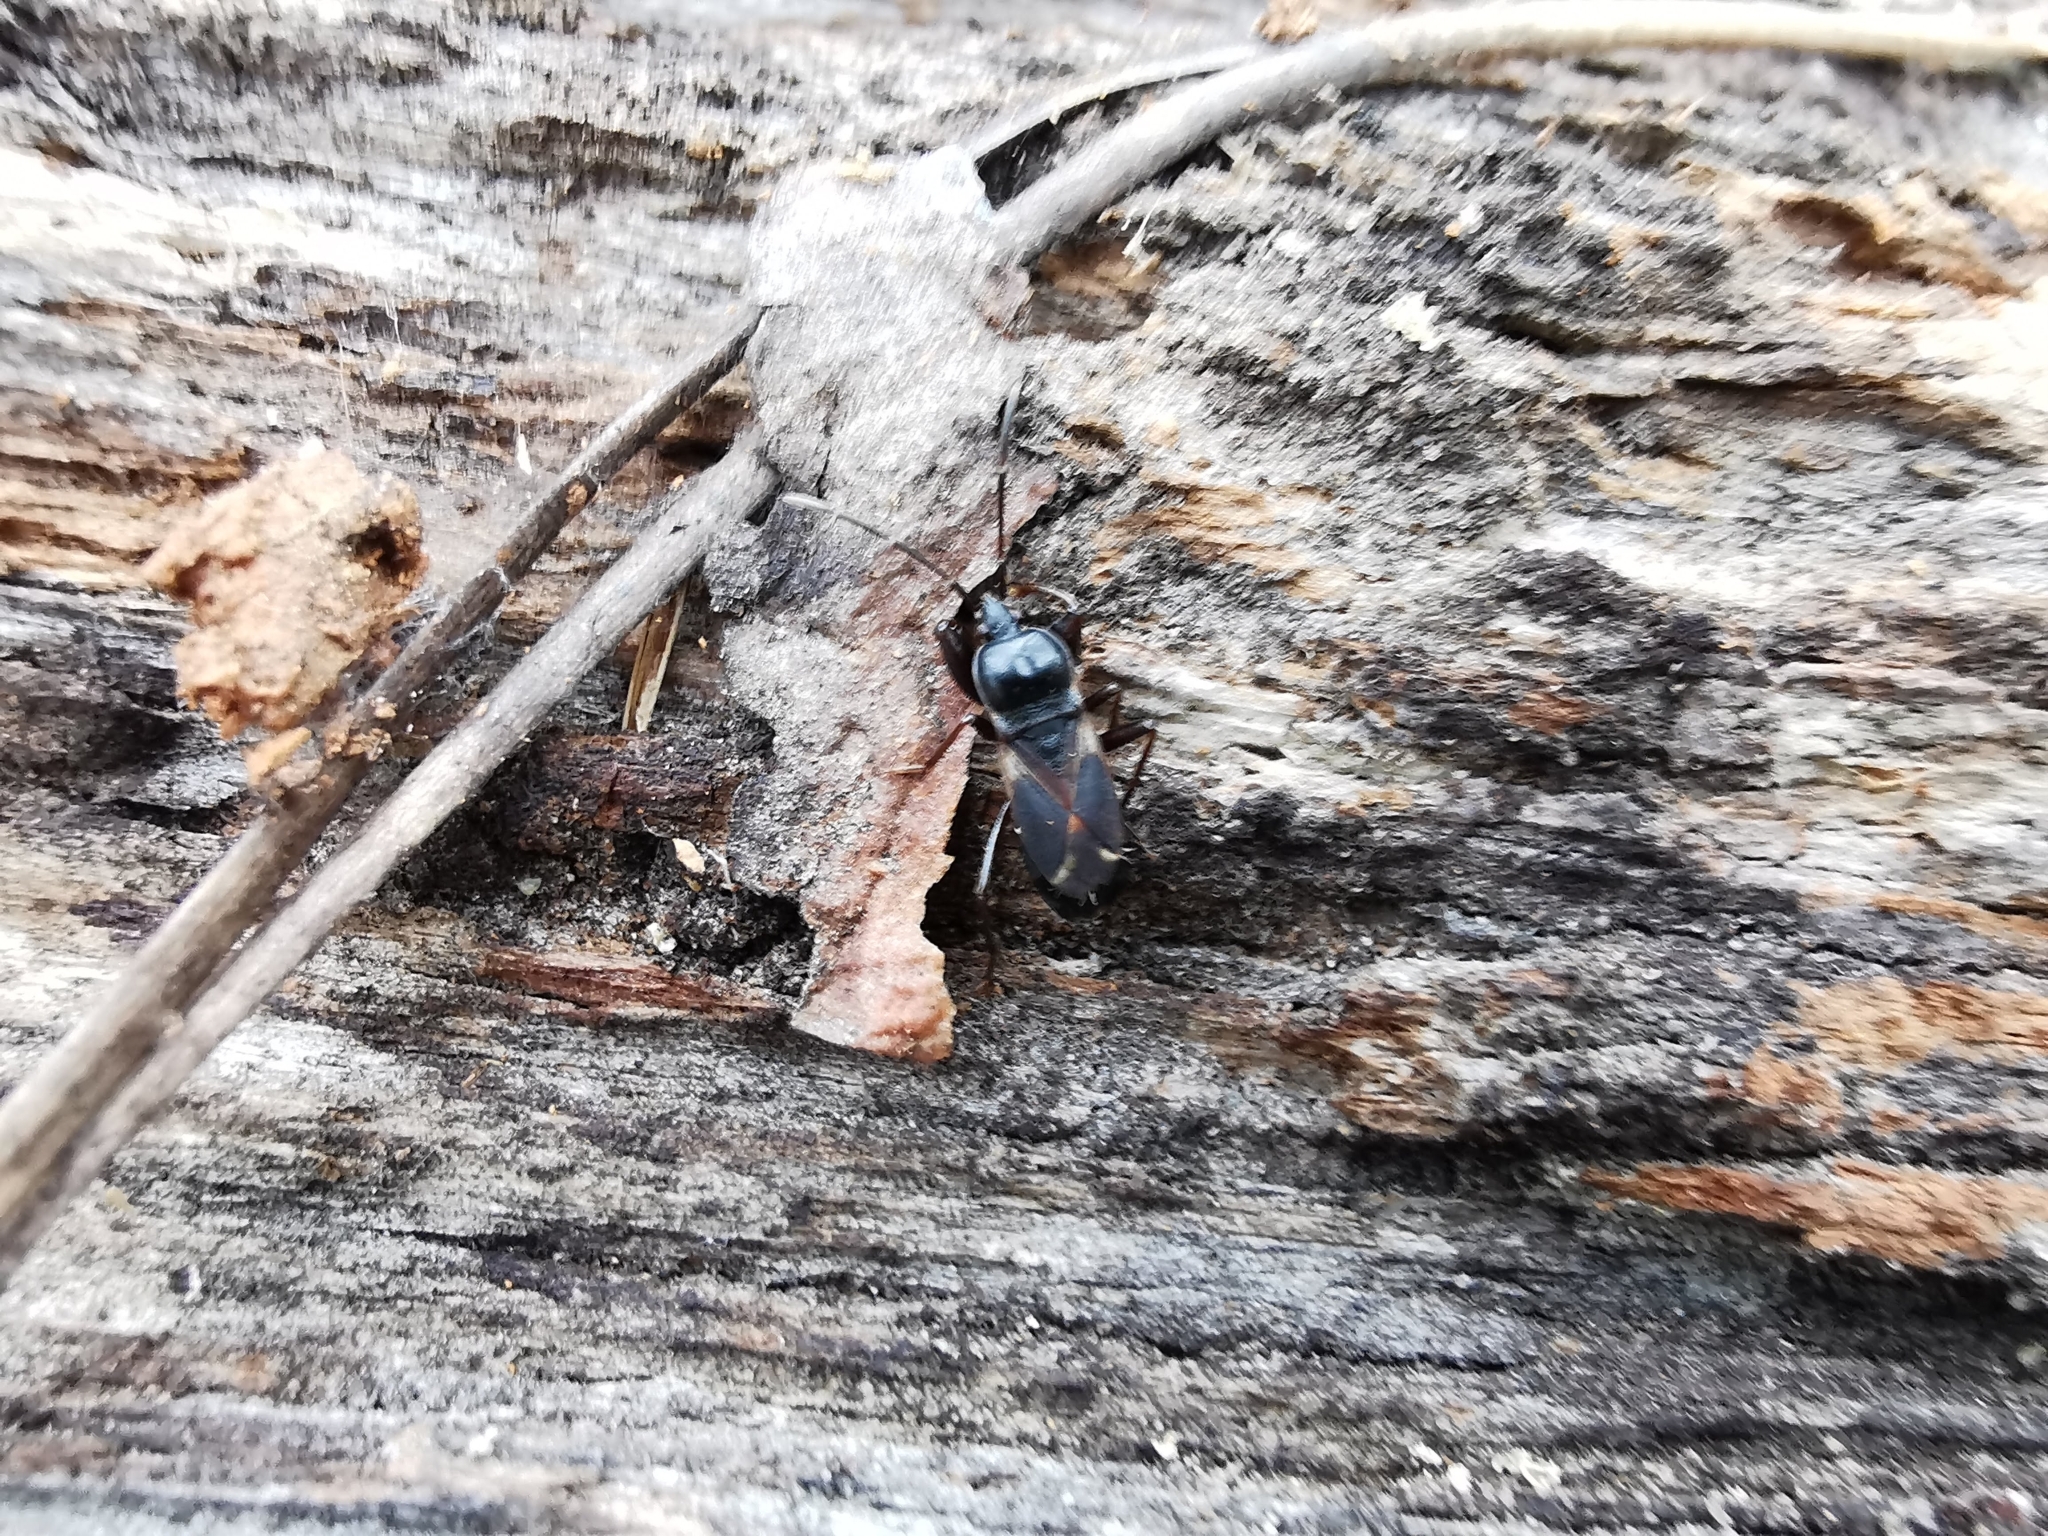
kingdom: Animalia
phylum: Arthropoda
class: Insecta
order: Hemiptera
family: Rhyparochromidae
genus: Eremocoris
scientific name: Eremocoris semicinctus
